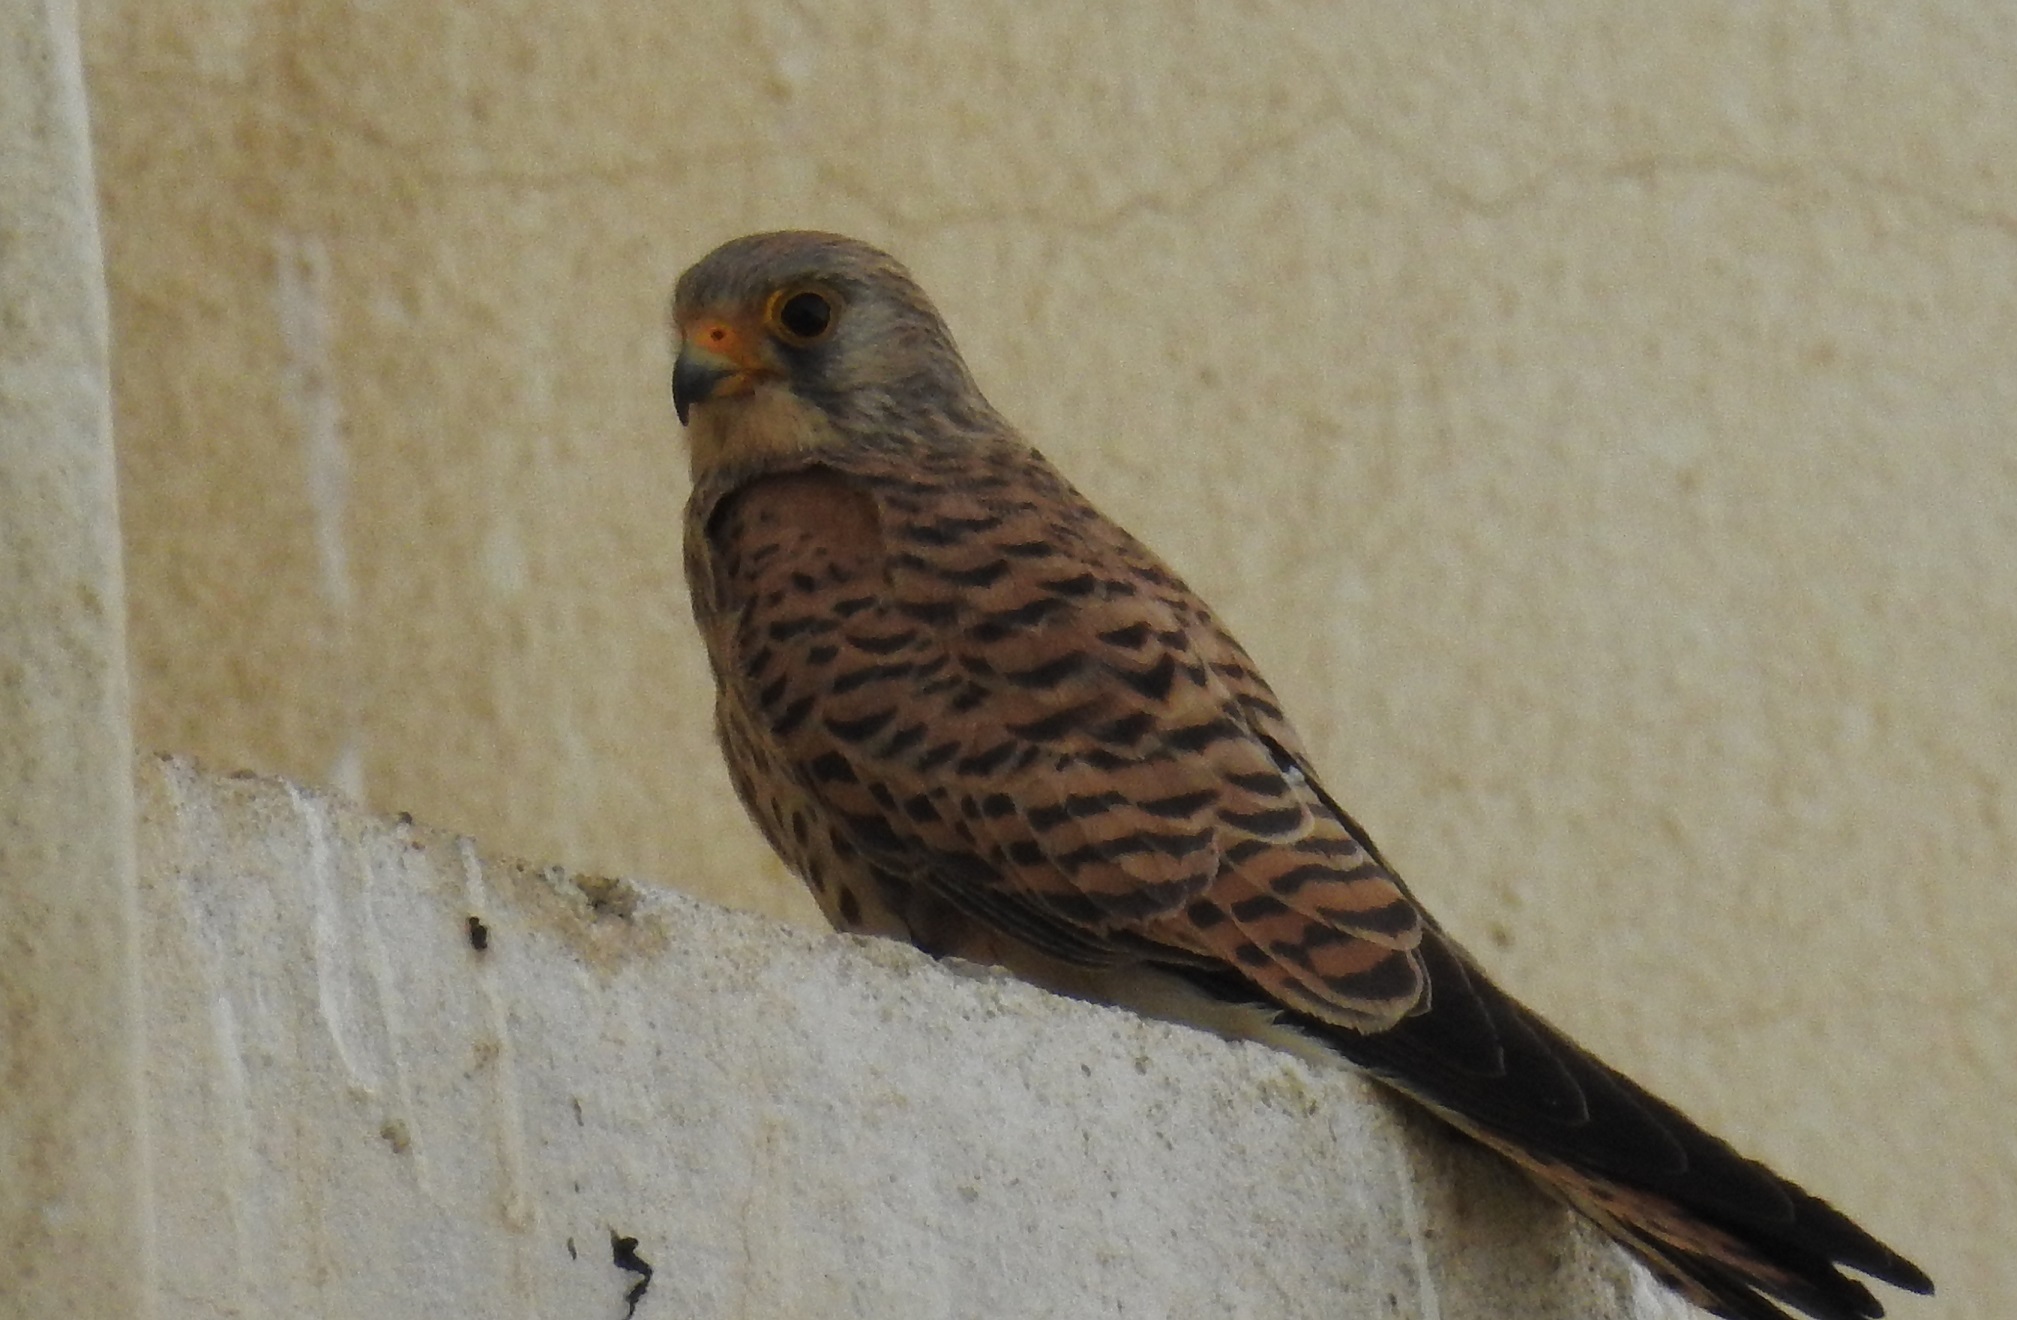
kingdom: Animalia
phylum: Chordata
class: Aves
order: Falconiformes
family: Falconidae
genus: Falco
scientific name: Falco tinnunculus
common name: Common kestrel
